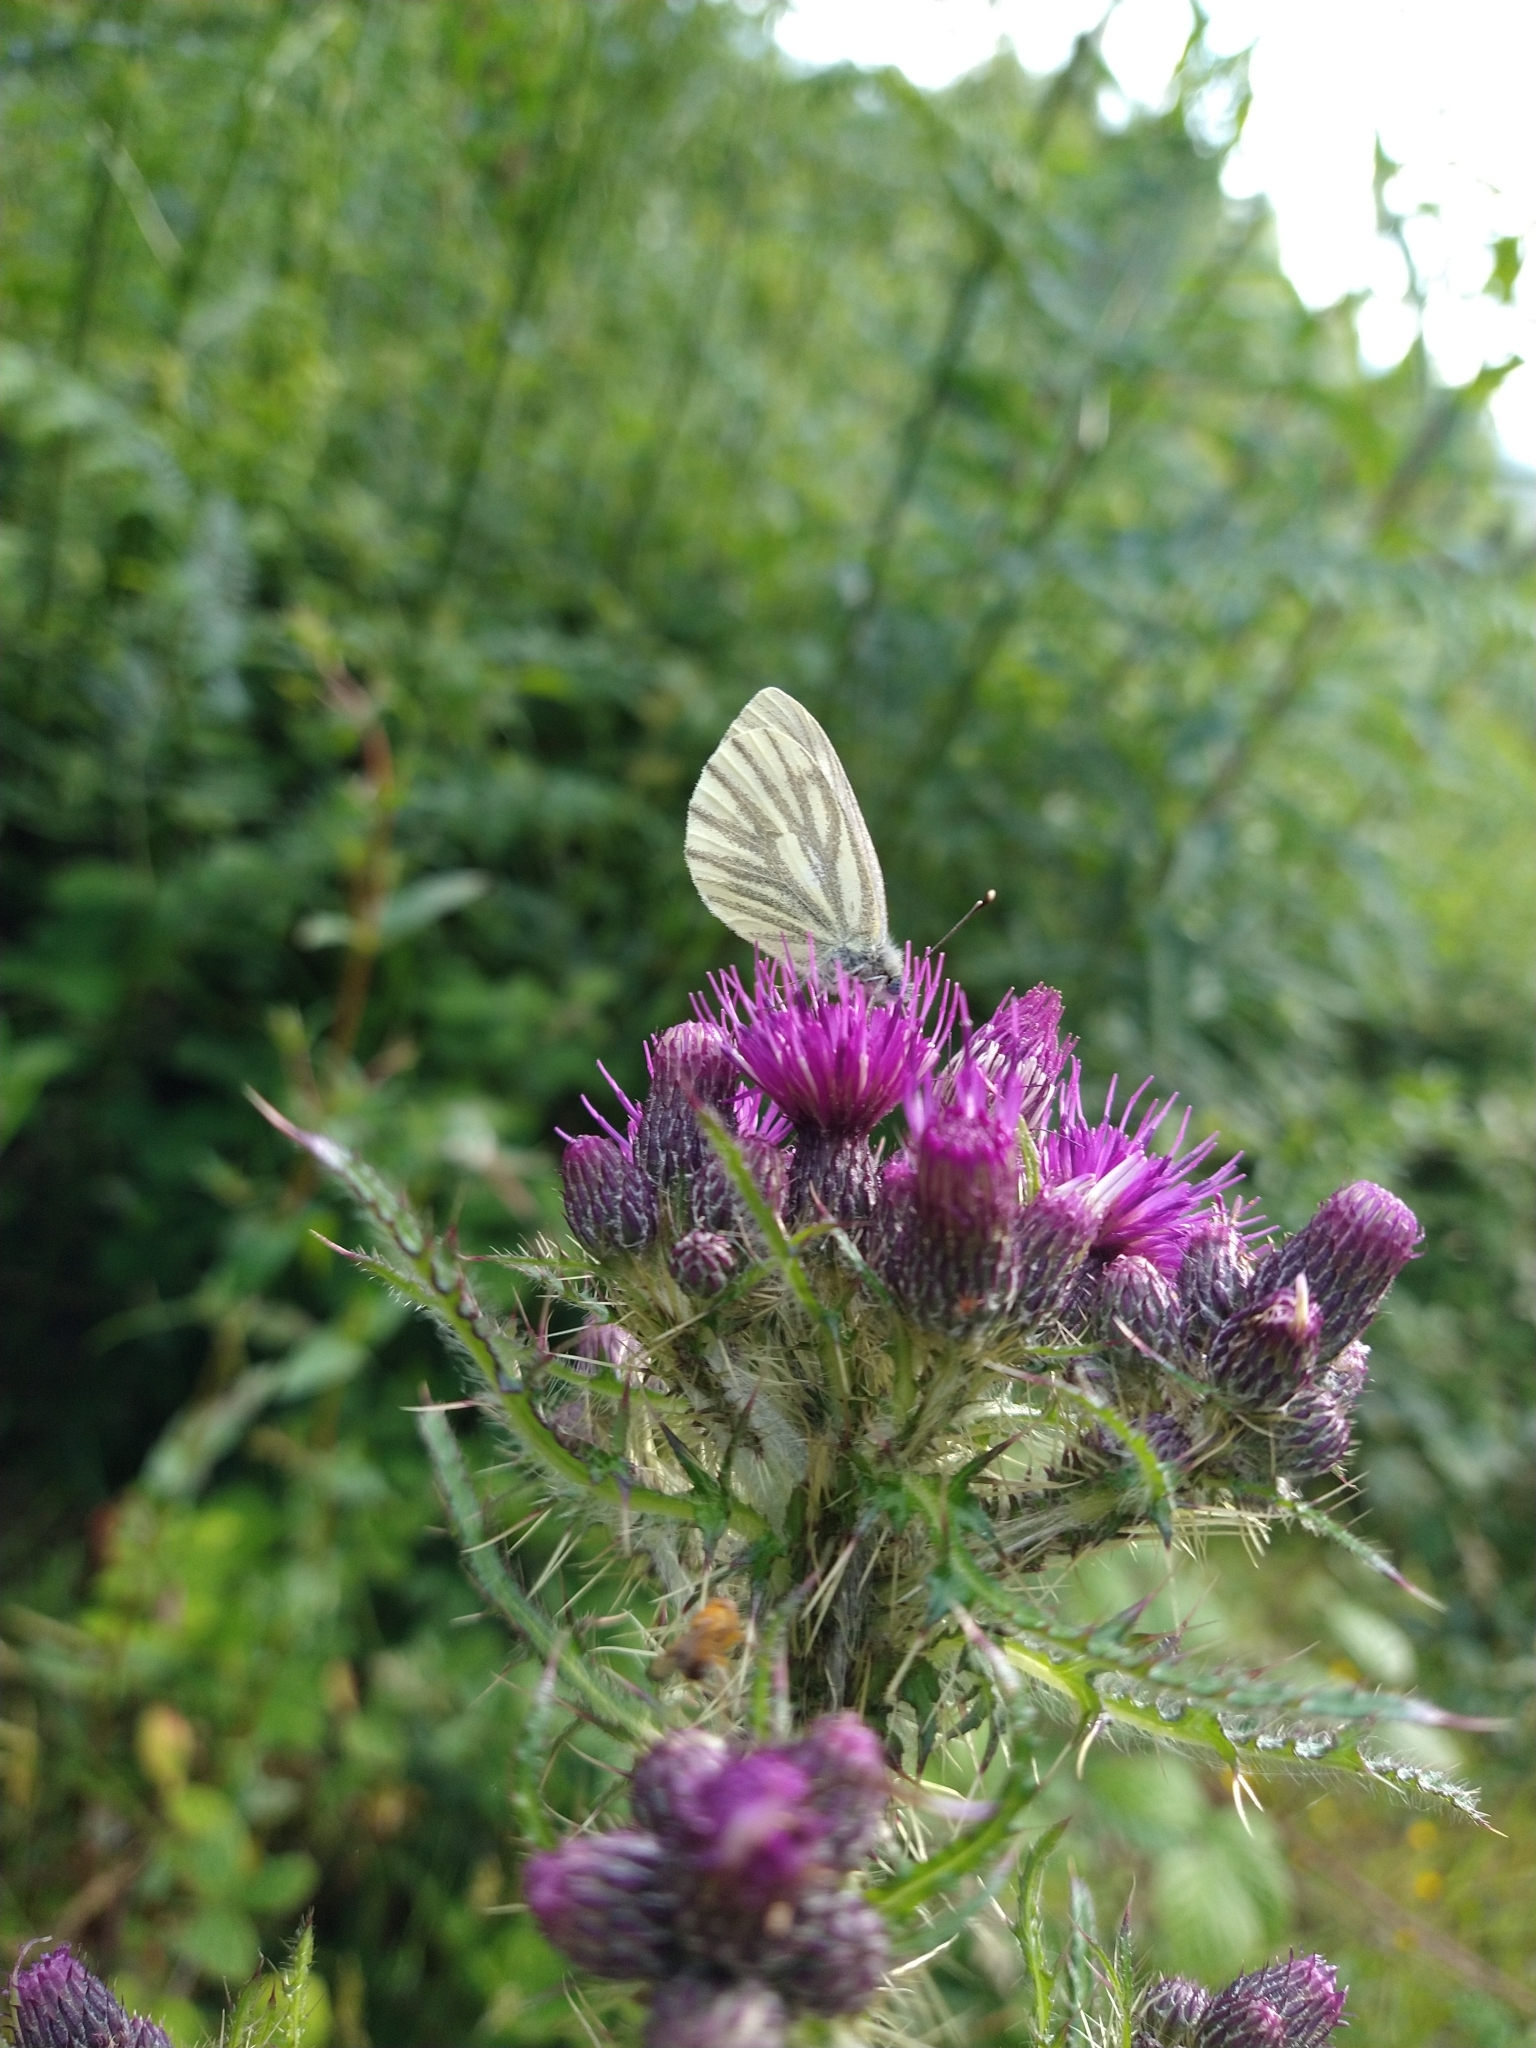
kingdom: Animalia
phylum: Arthropoda
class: Insecta
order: Lepidoptera
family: Pieridae
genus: Pieris
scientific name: Pieris napi
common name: Green-veined white
